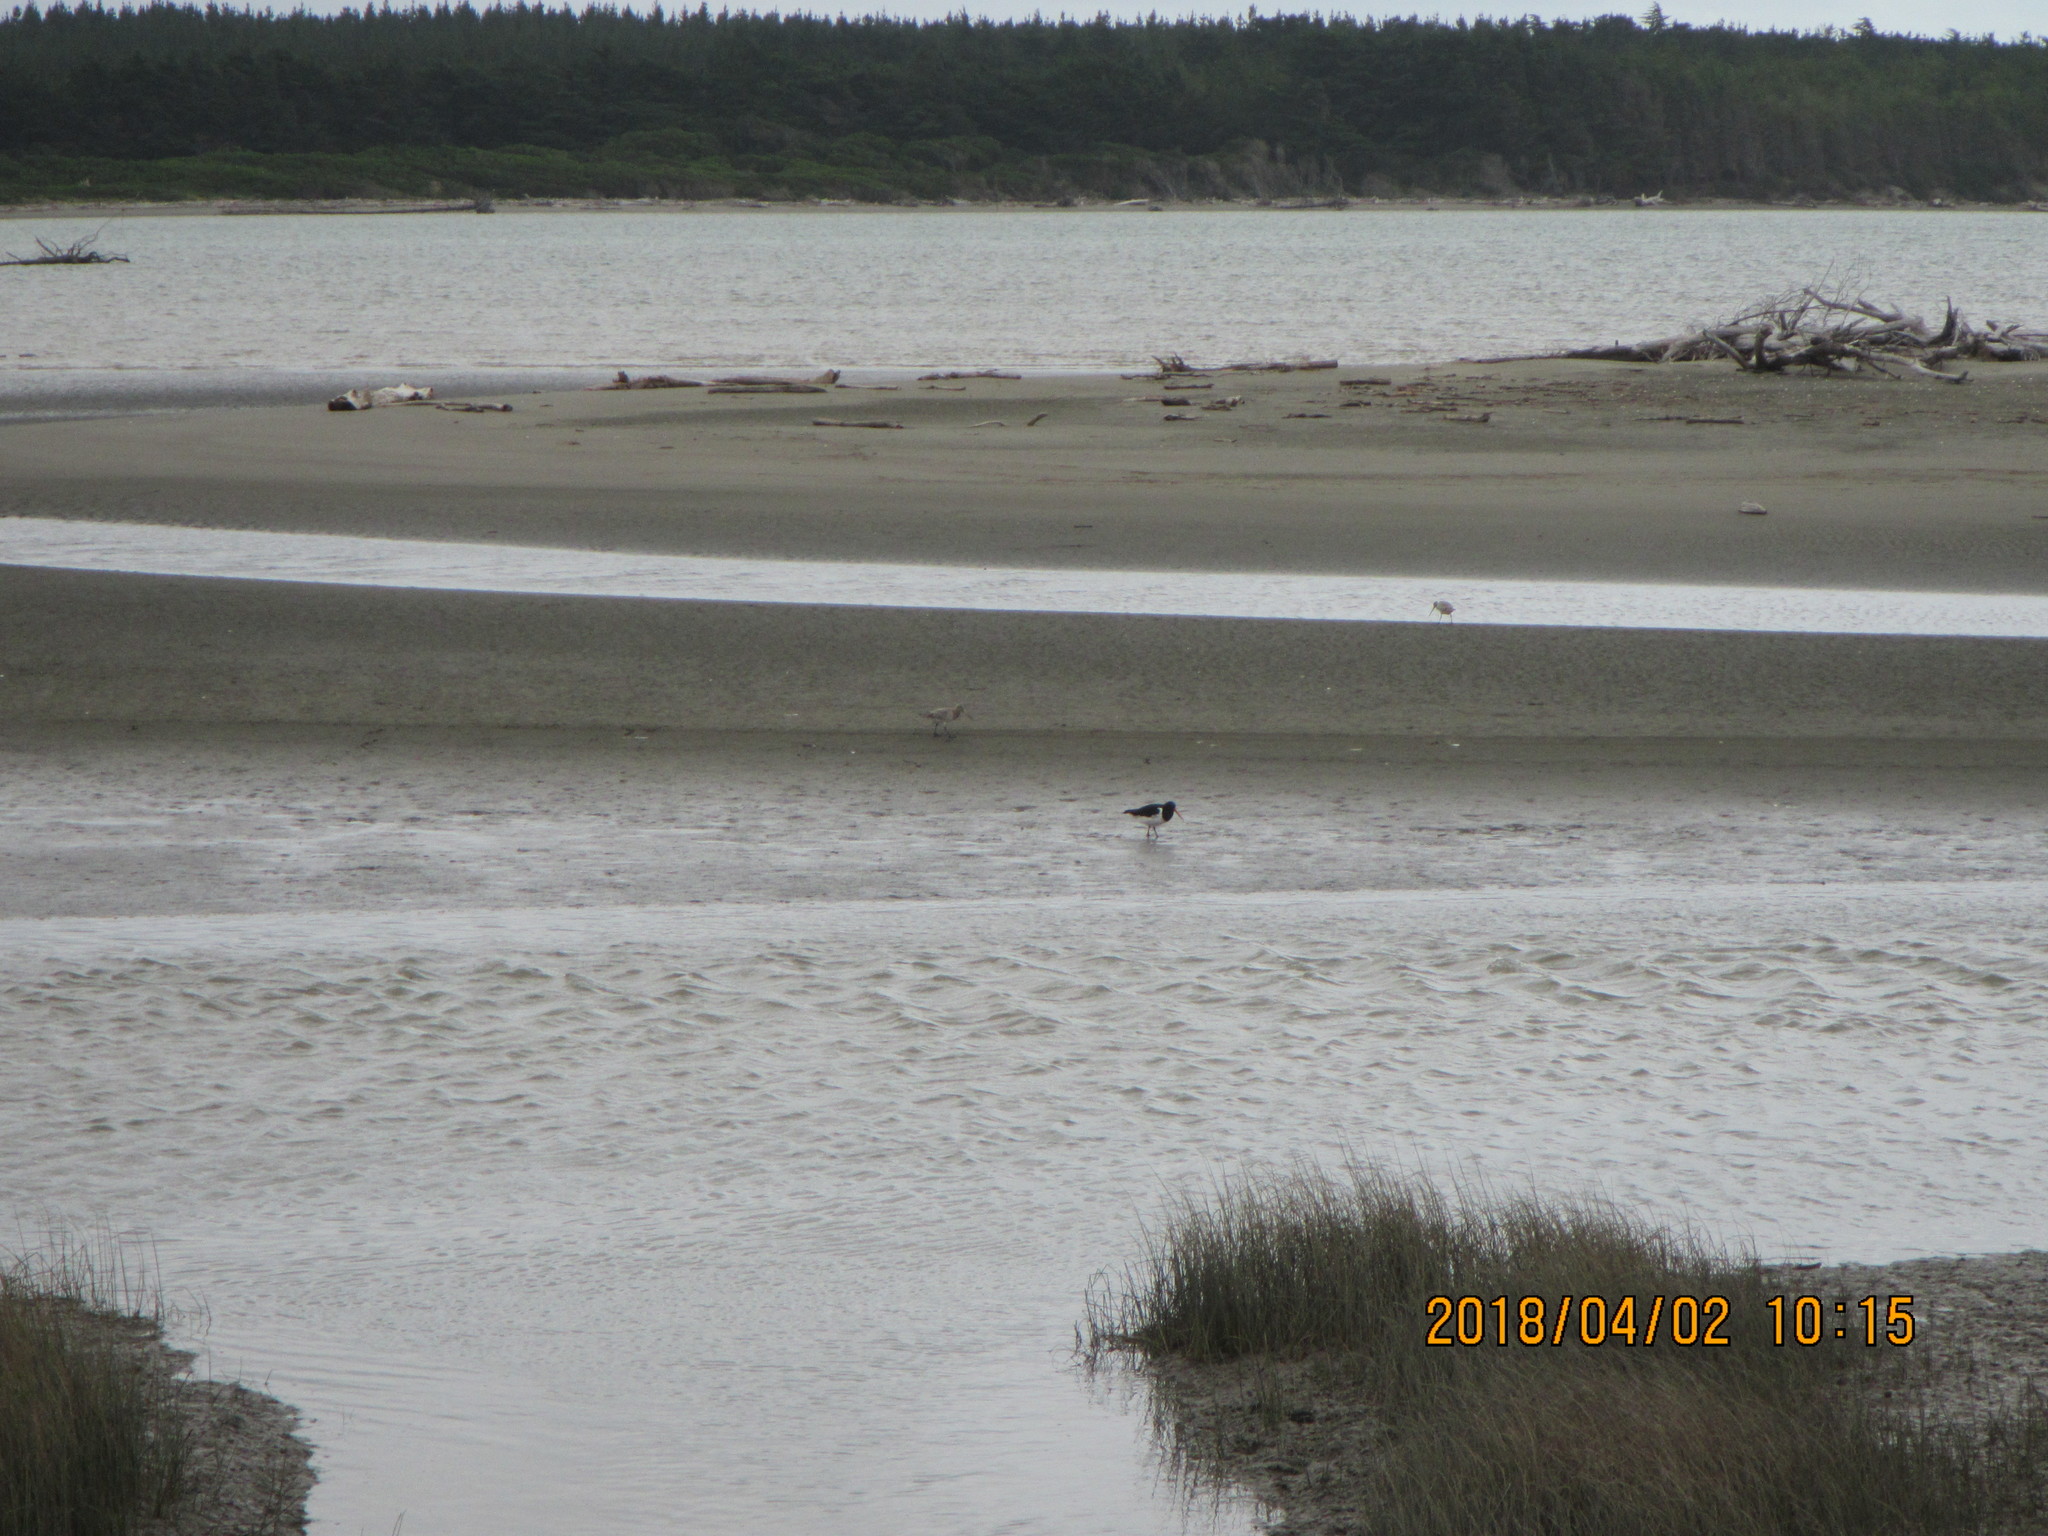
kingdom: Animalia
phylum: Chordata
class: Aves
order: Charadriiformes
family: Scolopacidae
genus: Limosa
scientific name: Limosa lapponica
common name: Bar-tailed godwit
